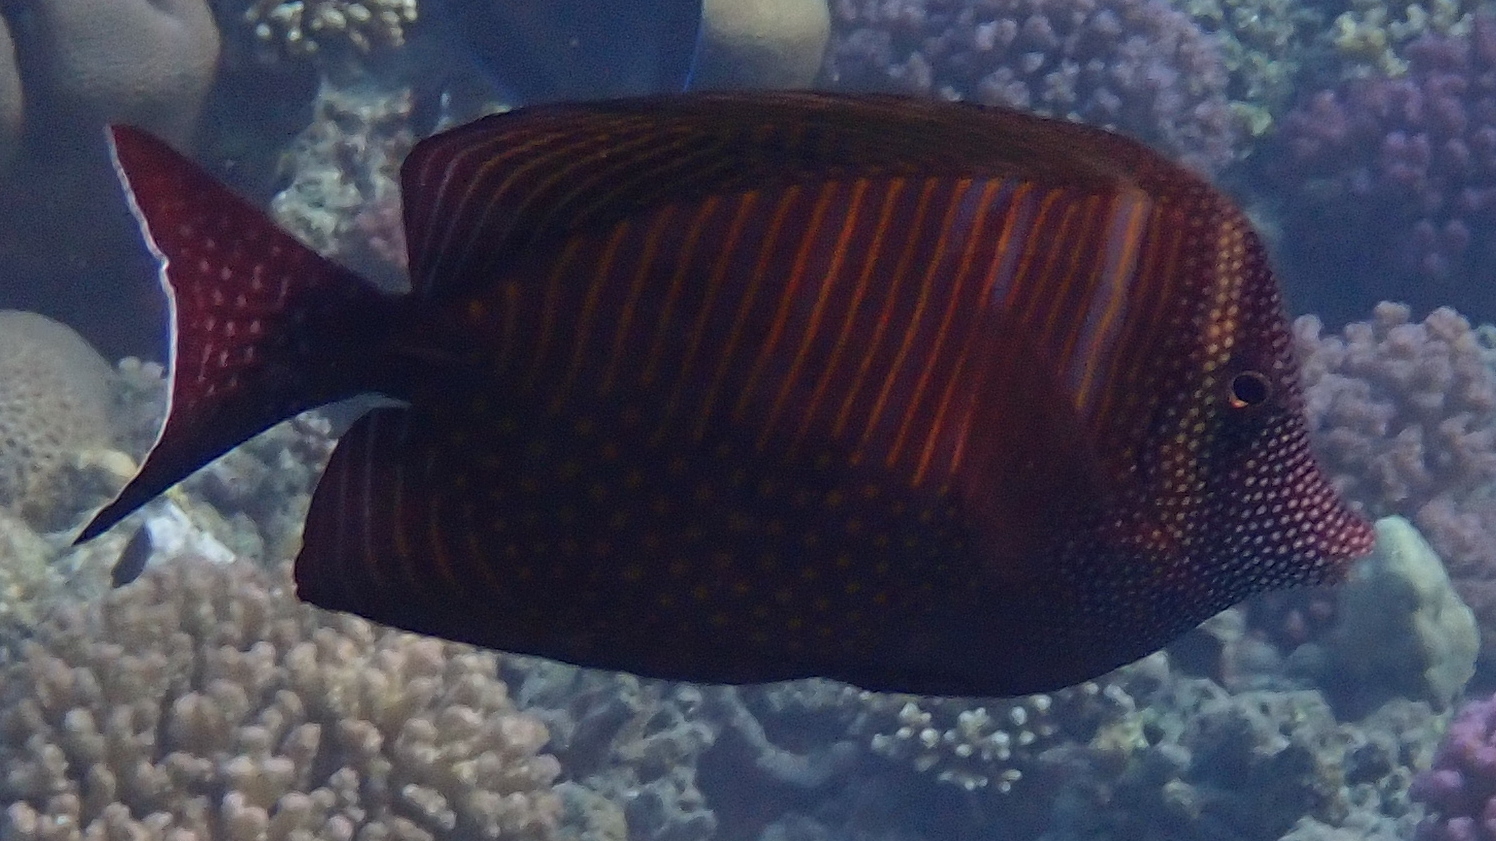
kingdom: Animalia
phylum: Chordata
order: Perciformes
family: Acanthuridae
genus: Zebrasoma
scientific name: Zebrasoma desjardinii
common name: Desjardin's sailfin tang
